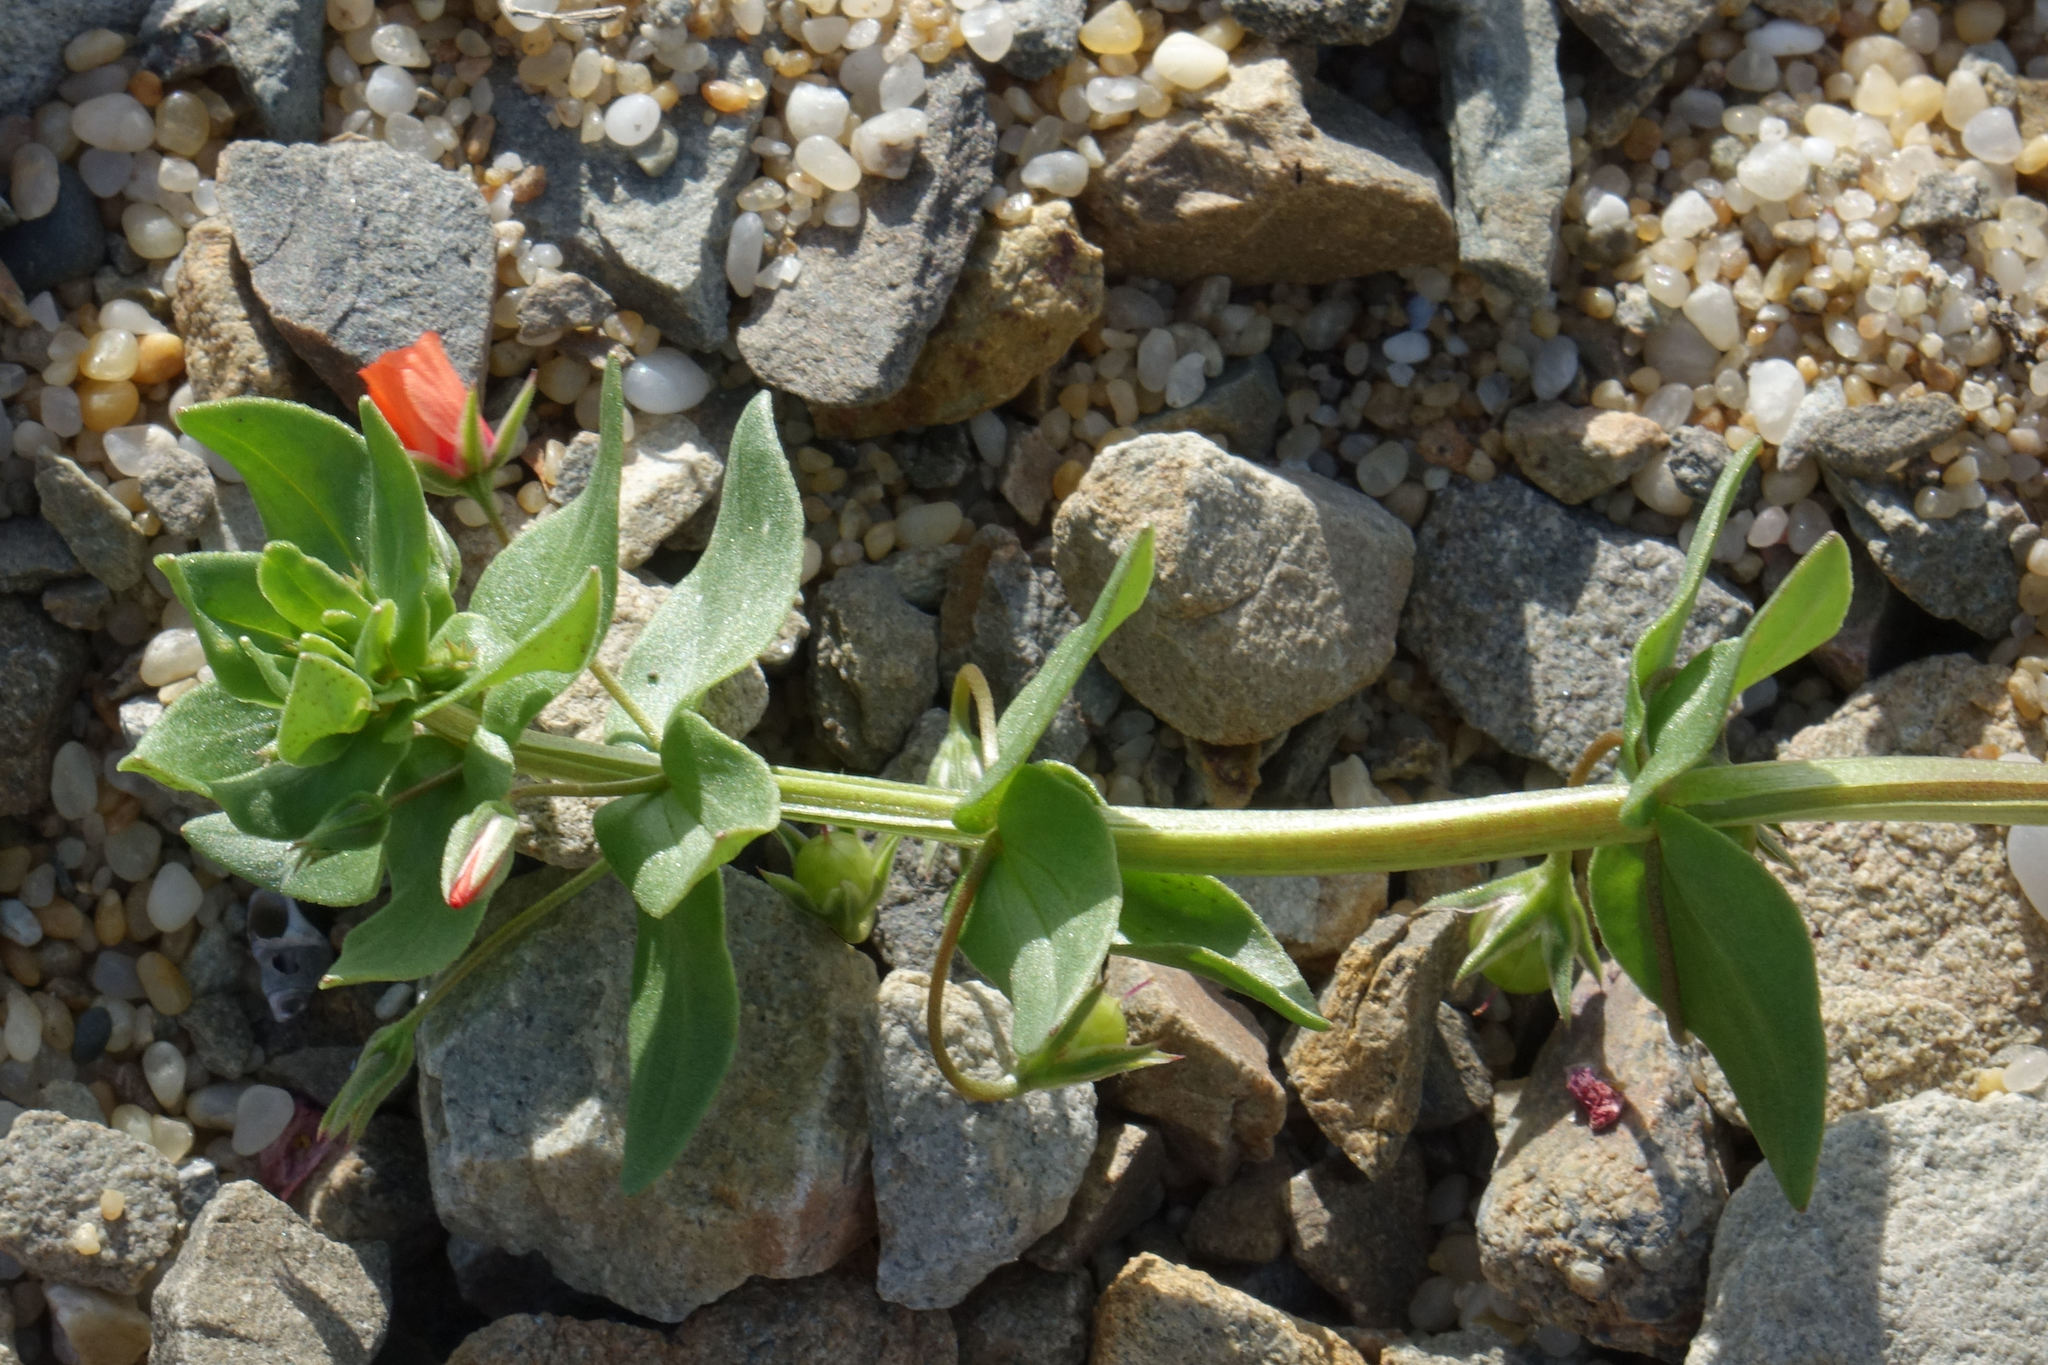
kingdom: Plantae
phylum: Tracheophyta
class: Magnoliopsida
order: Ericales
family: Primulaceae
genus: Lysimachia
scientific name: Lysimachia arvensis
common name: Scarlet pimpernel
